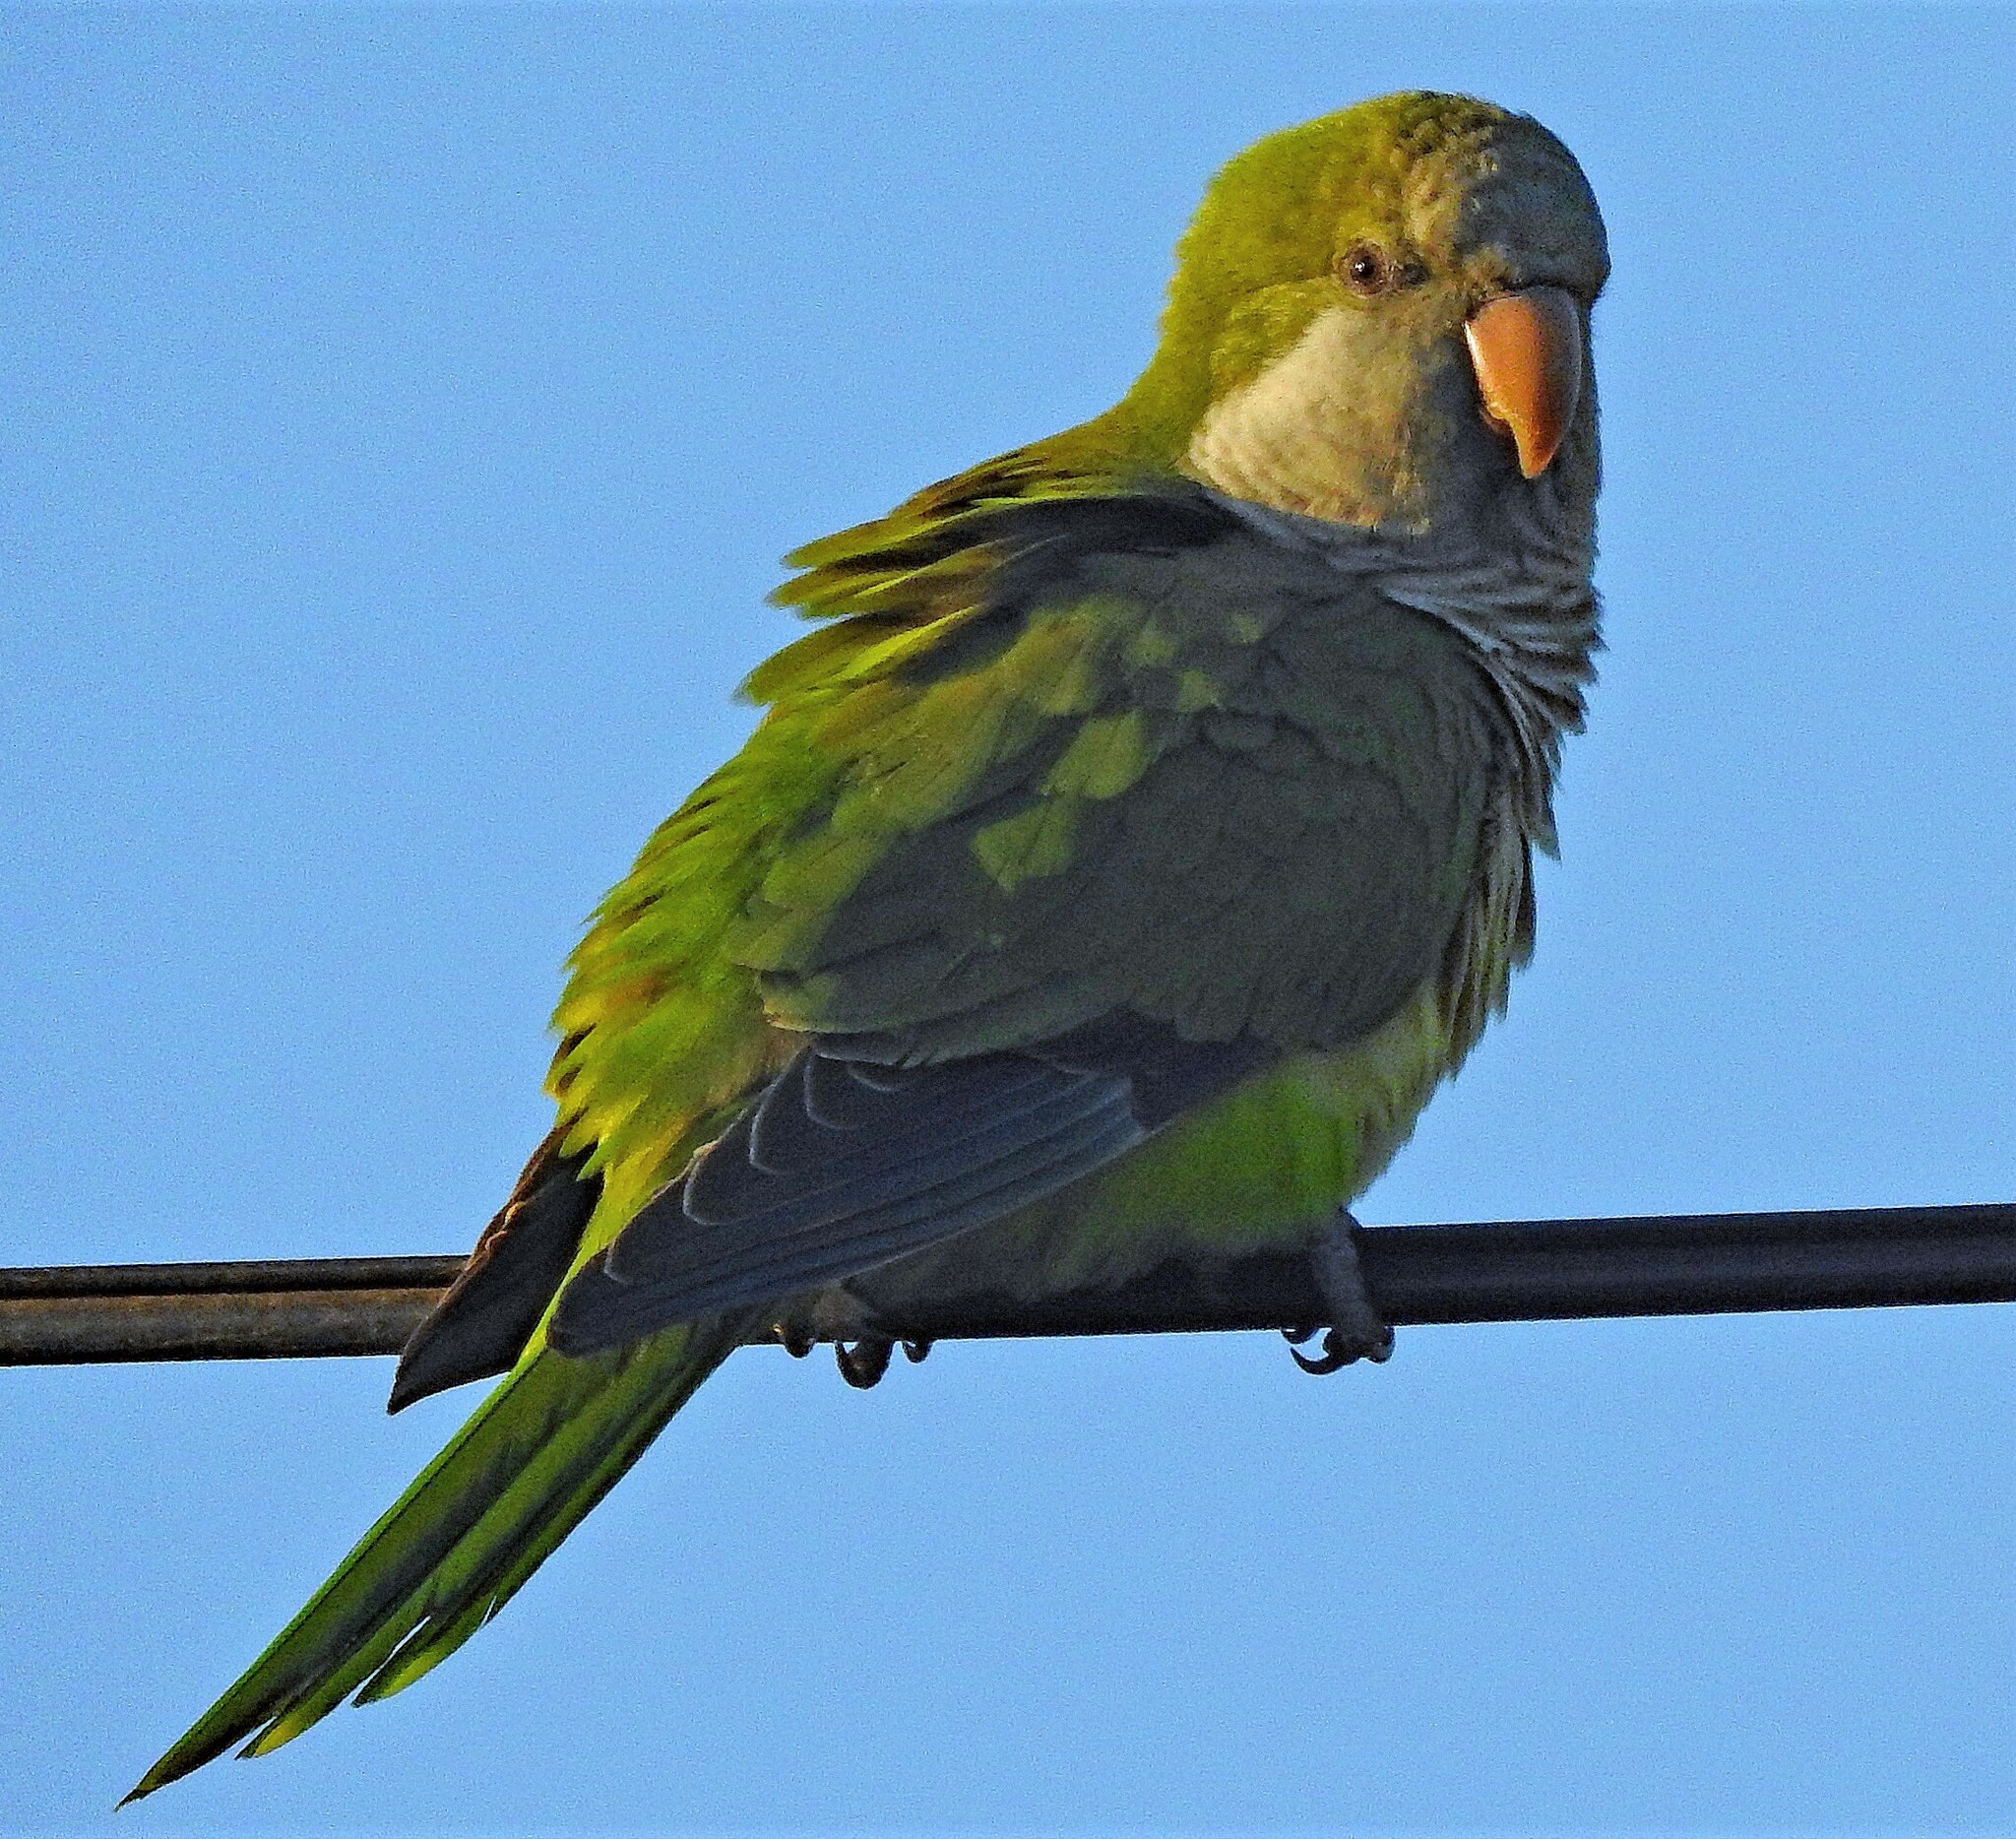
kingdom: Animalia
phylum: Chordata
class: Aves
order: Psittaciformes
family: Psittacidae
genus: Myiopsitta
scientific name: Myiopsitta monachus
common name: Monk parakeet
